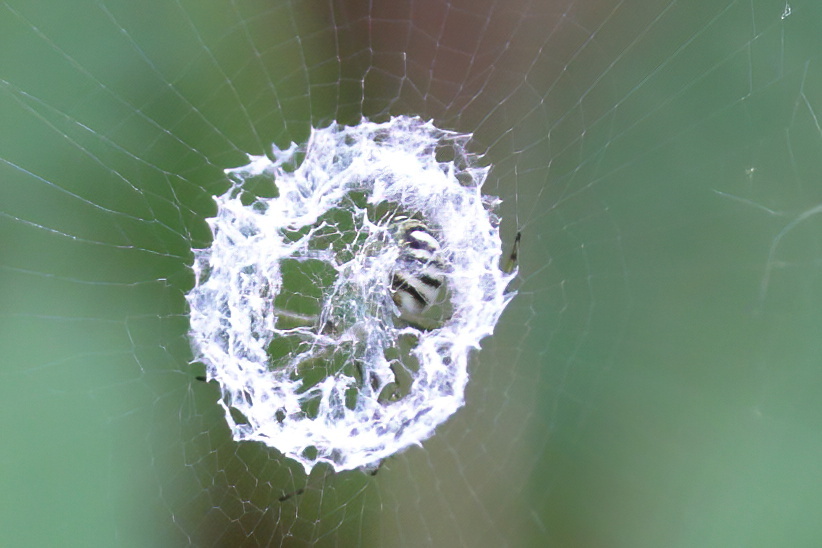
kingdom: Animalia
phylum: Arthropoda
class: Arachnida
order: Araneae
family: Araneidae
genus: Mangora
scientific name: Mangora gibberosa
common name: Lined orbweaver
